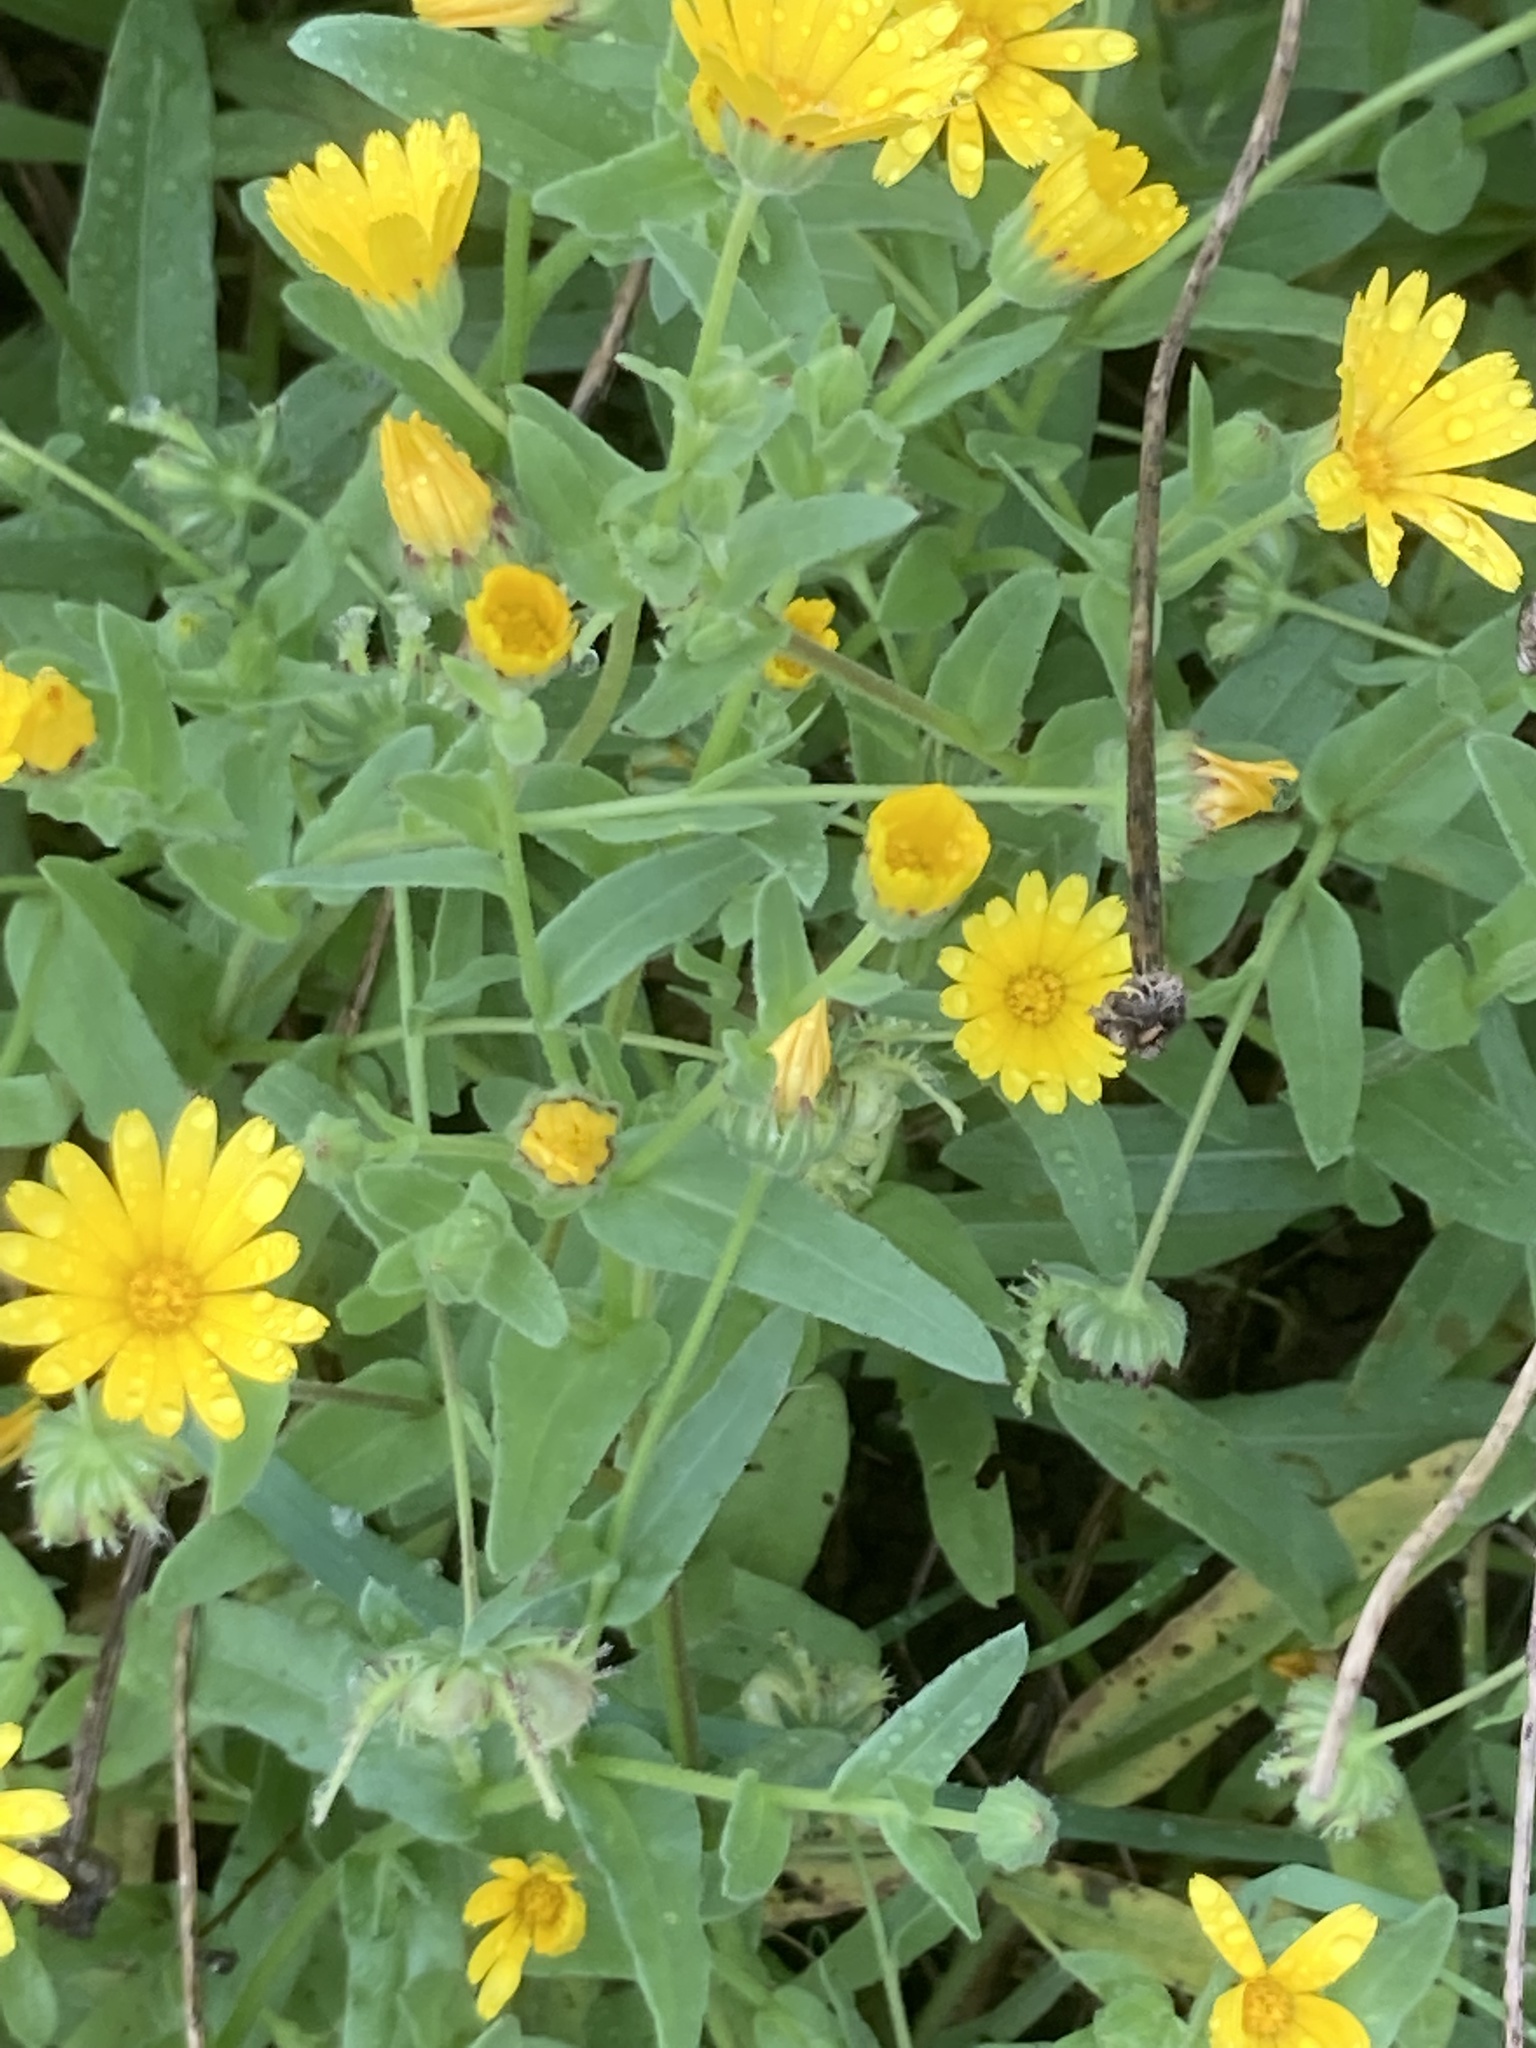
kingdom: Plantae
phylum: Tracheophyta
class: Magnoliopsida
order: Asterales
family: Asteraceae
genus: Calendula
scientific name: Calendula arvensis
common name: Field marigold
